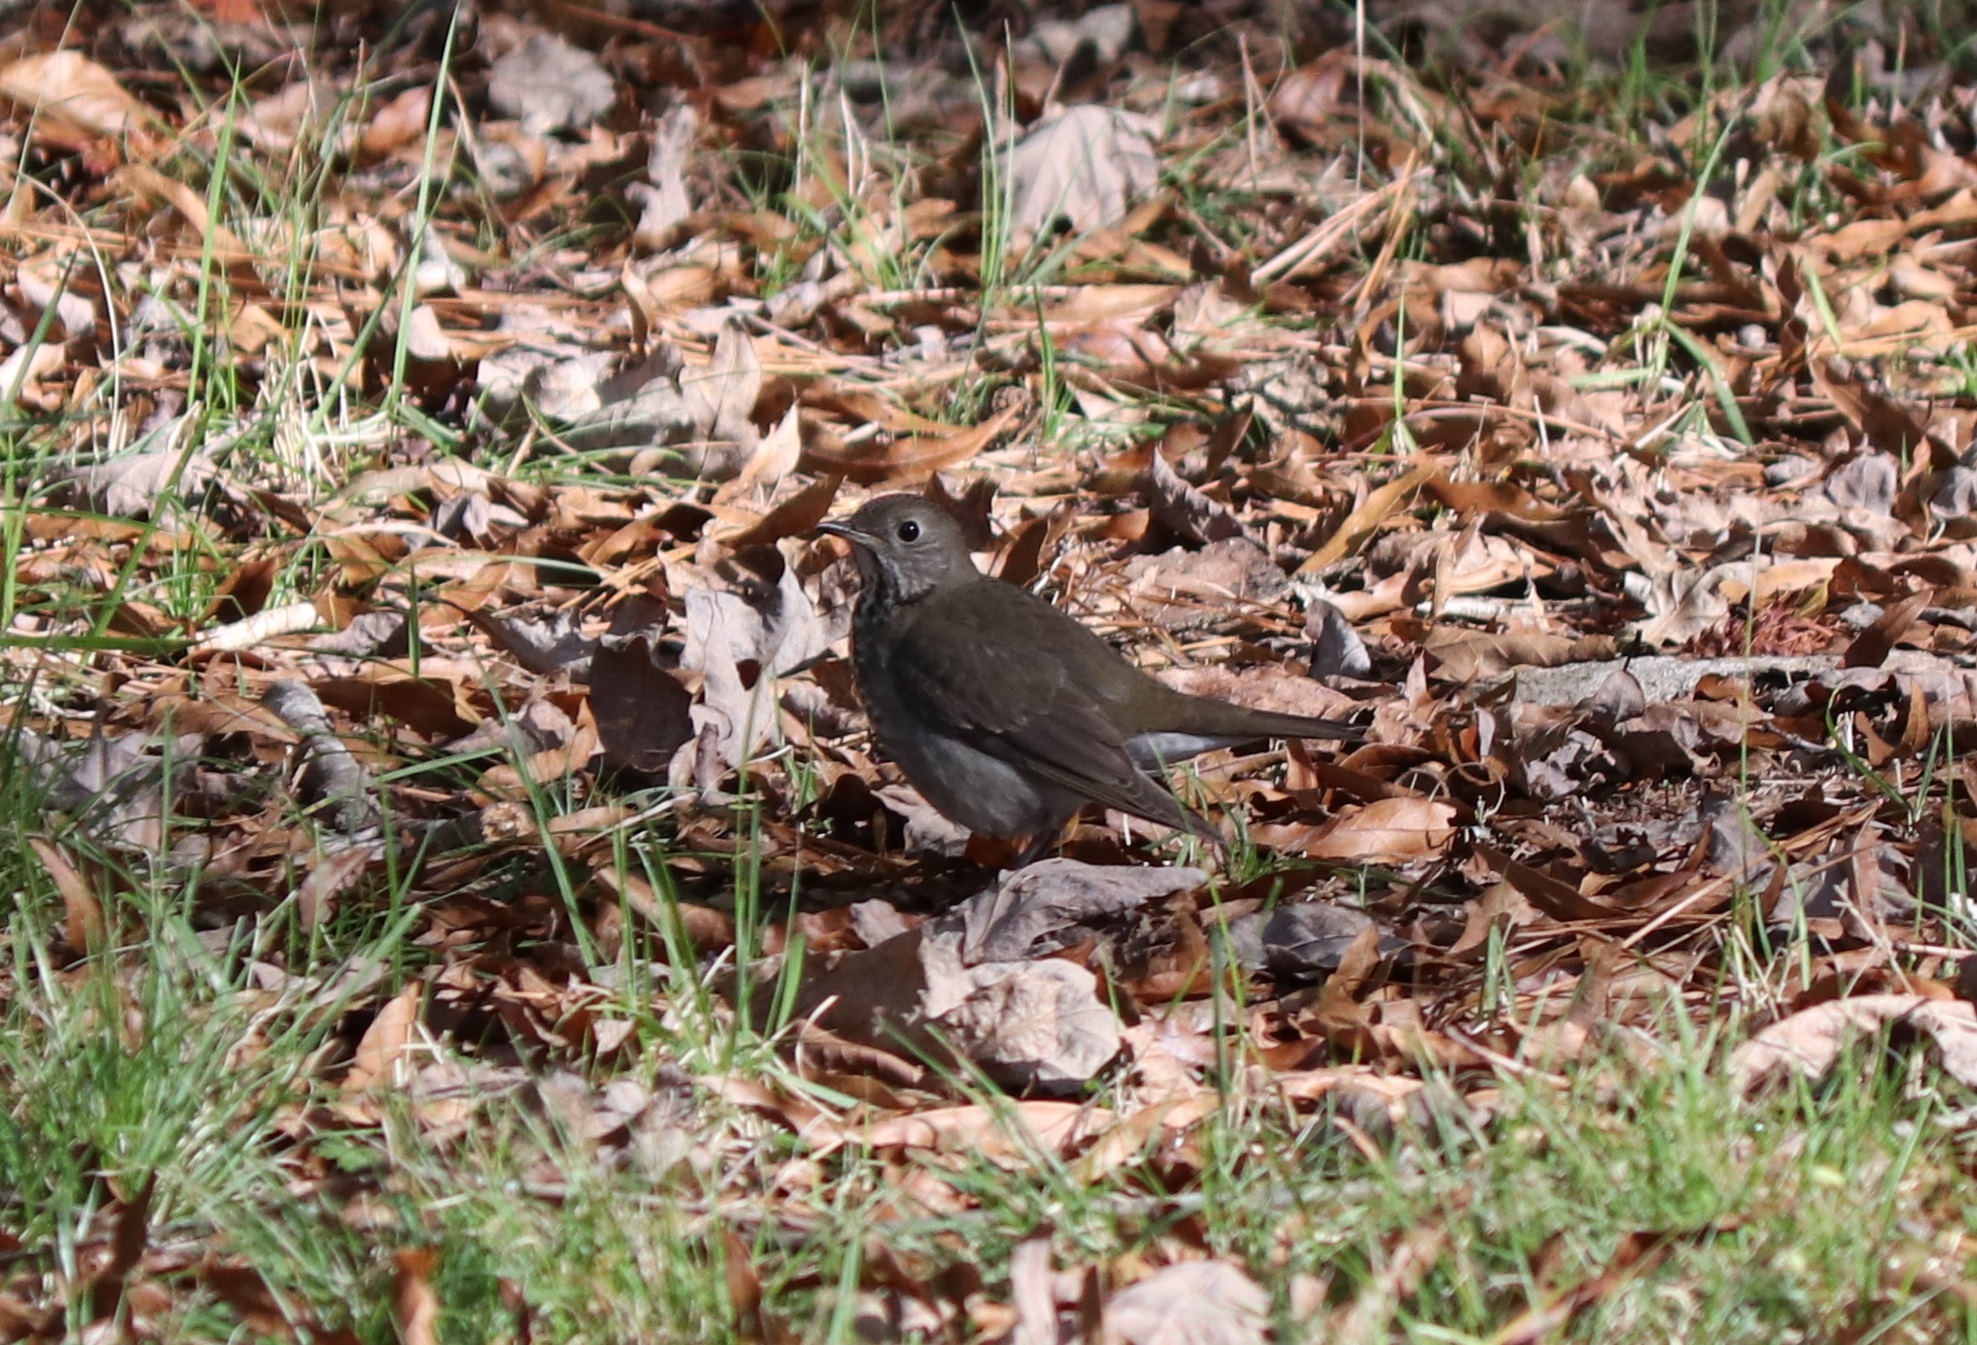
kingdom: Animalia
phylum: Chordata
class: Aves
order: Passeriformes
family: Turdidae
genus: Catharus
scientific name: Catharus minimus
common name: Grey-cheeked thrush
